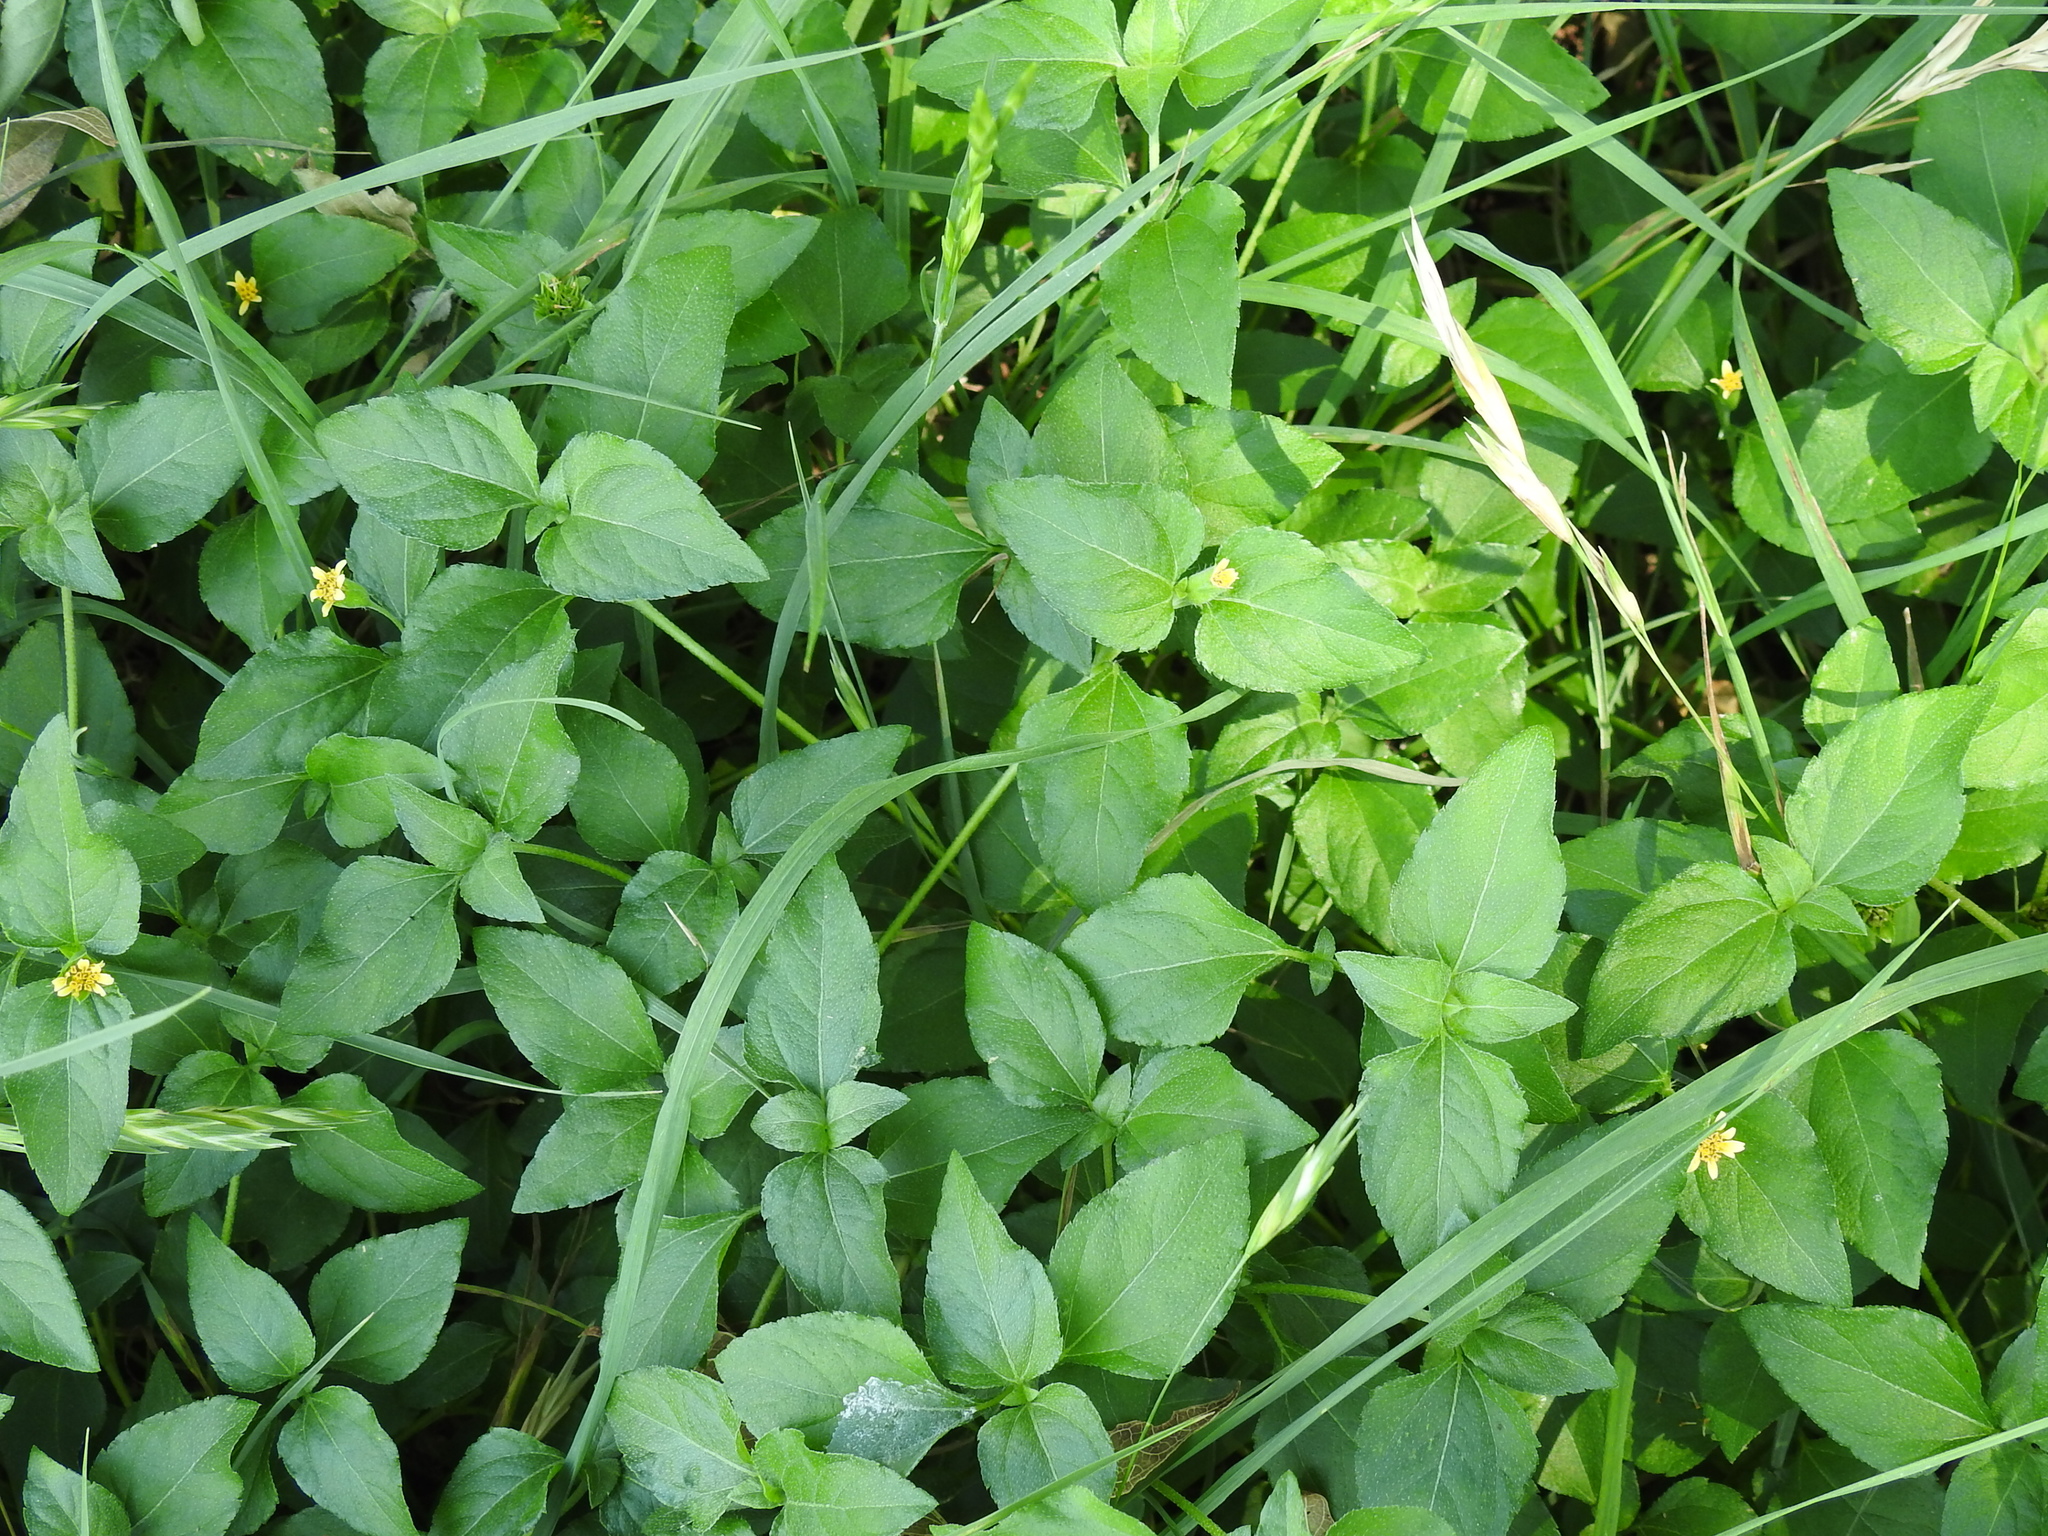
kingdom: Plantae
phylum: Tracheophyta
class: Magnoliopsida
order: Asterales
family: Asteraceae
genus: Calyptocarpus
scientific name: Calyptocarpus vialis
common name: Straggler daisy
